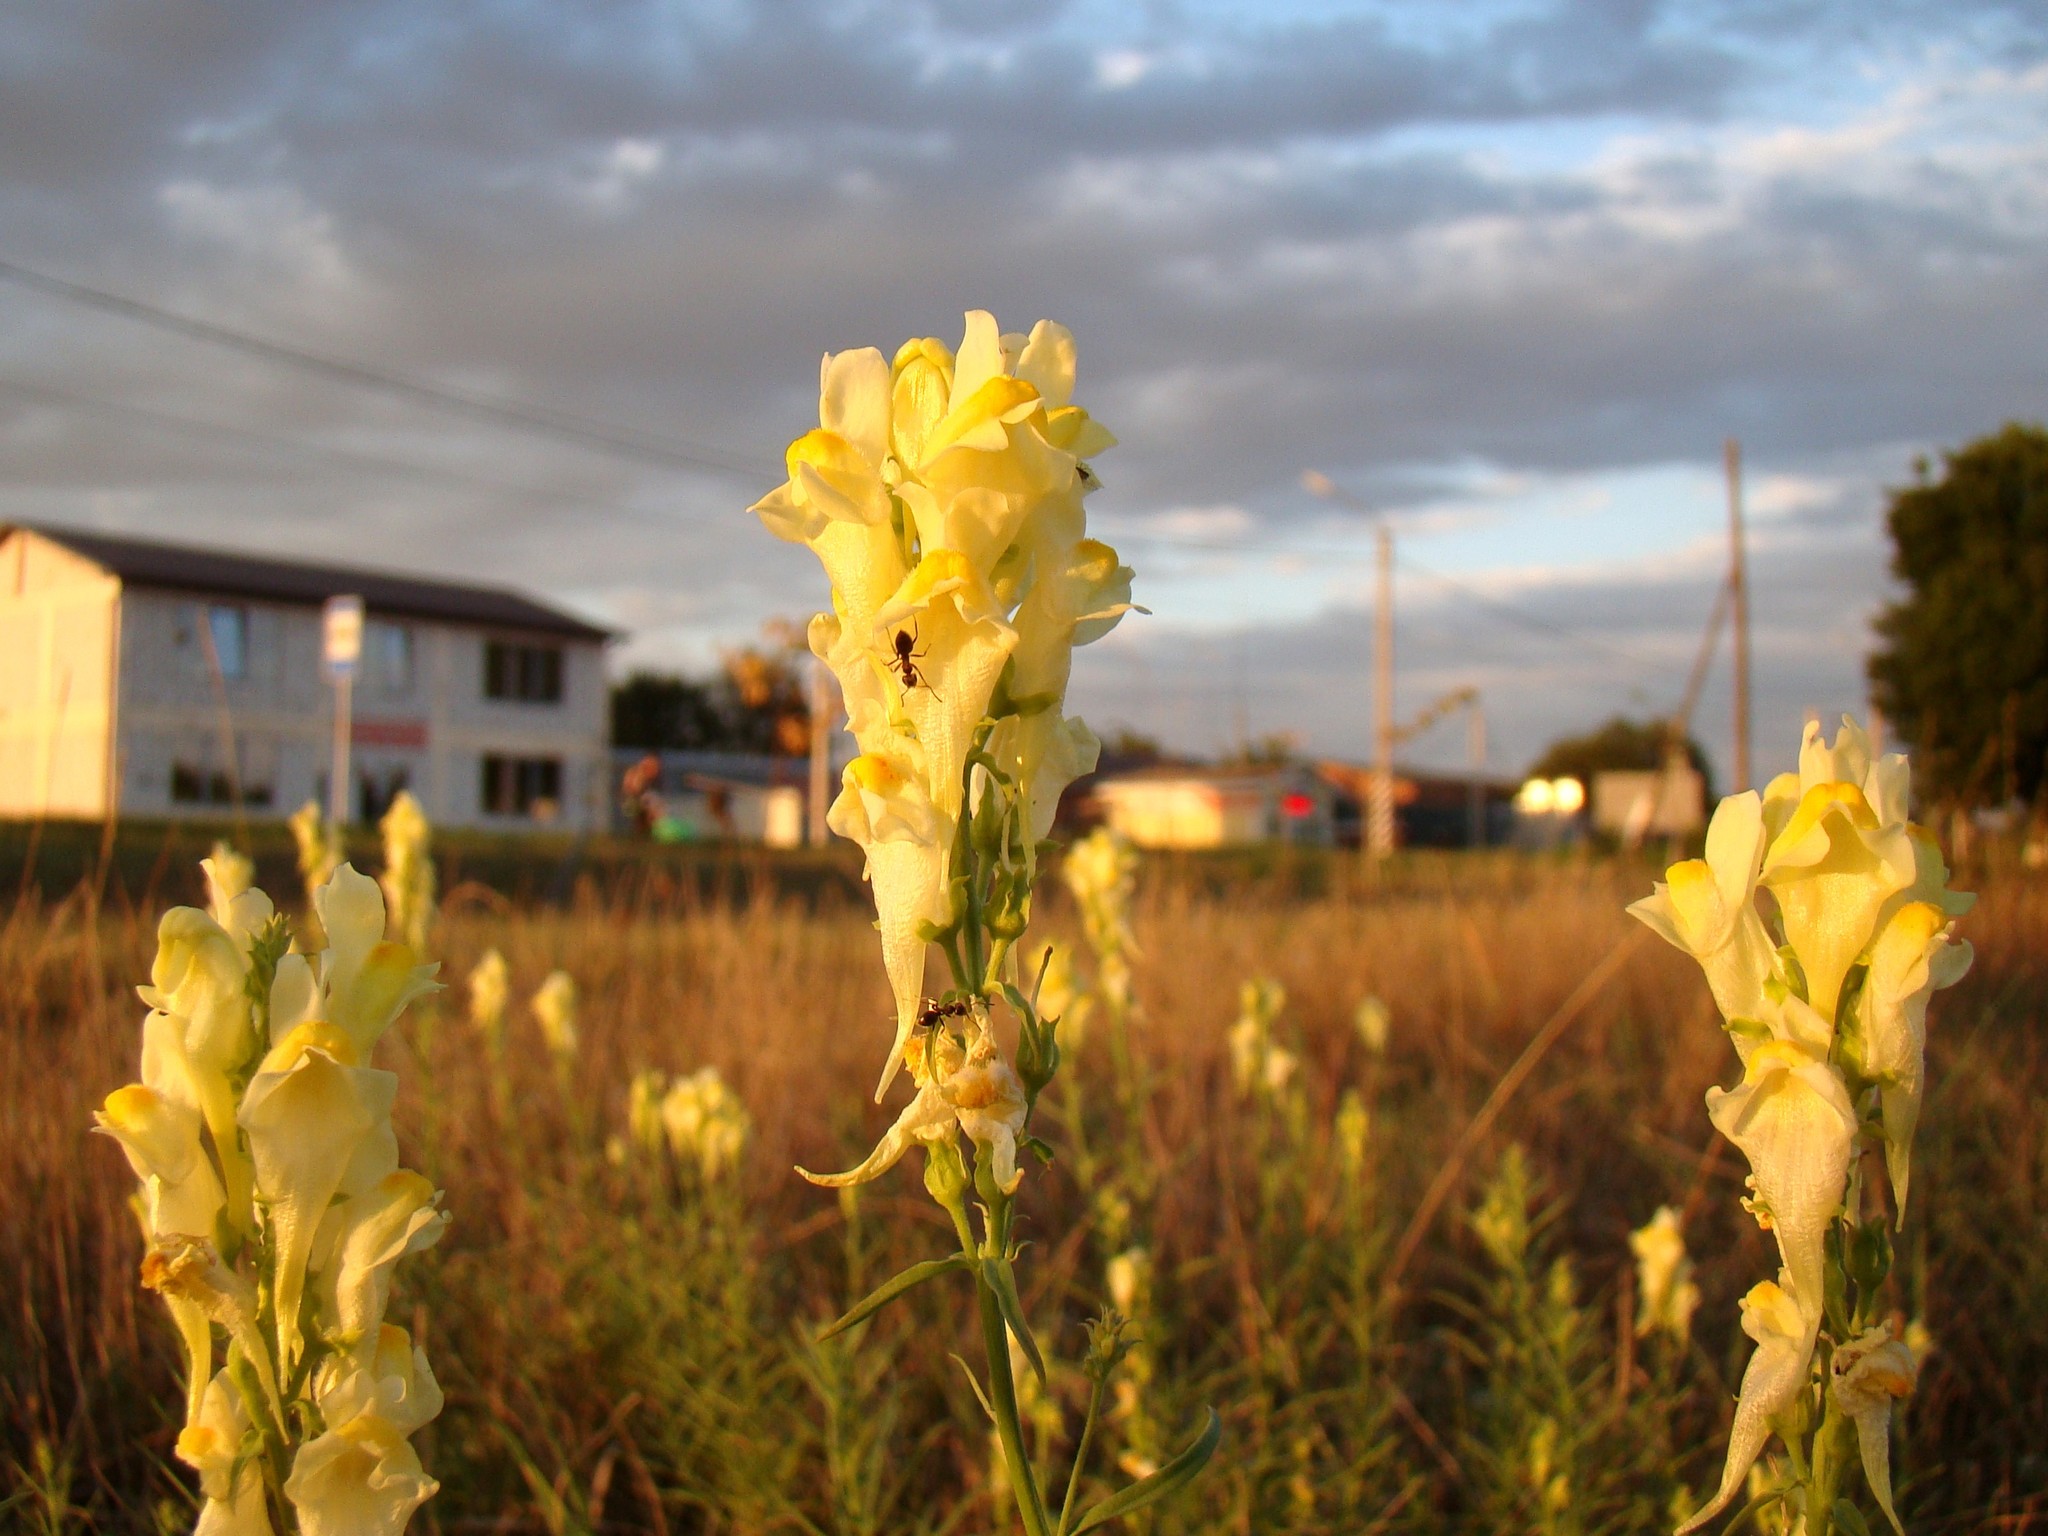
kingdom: Plantae
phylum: Tracheophyta
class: Magnoliopsida
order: Lamiales
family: Plantaginaceae
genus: Linaria
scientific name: Linaria vulgaris
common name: Butter and eggs
